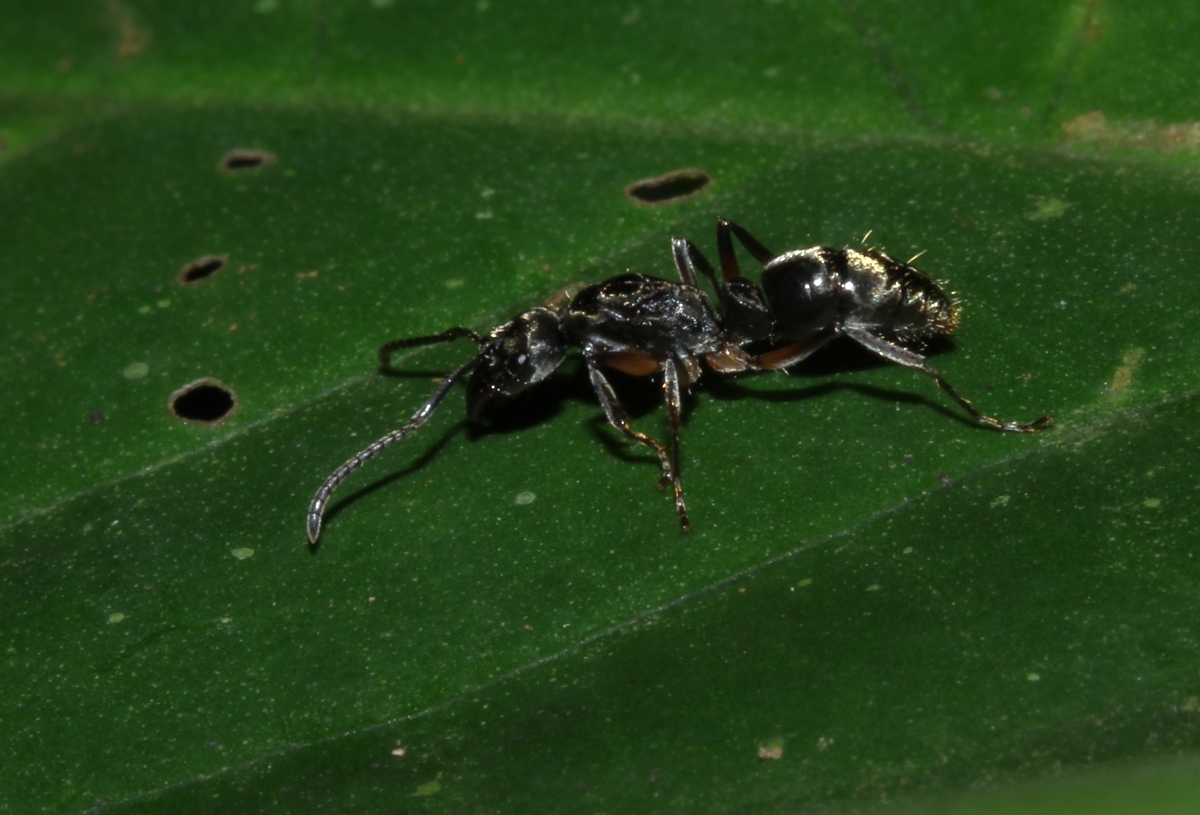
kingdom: Animalia
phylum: Arthropoda
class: Insecta
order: Hymenoptera
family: Formicidae
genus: Neoponera
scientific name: Neoponera
